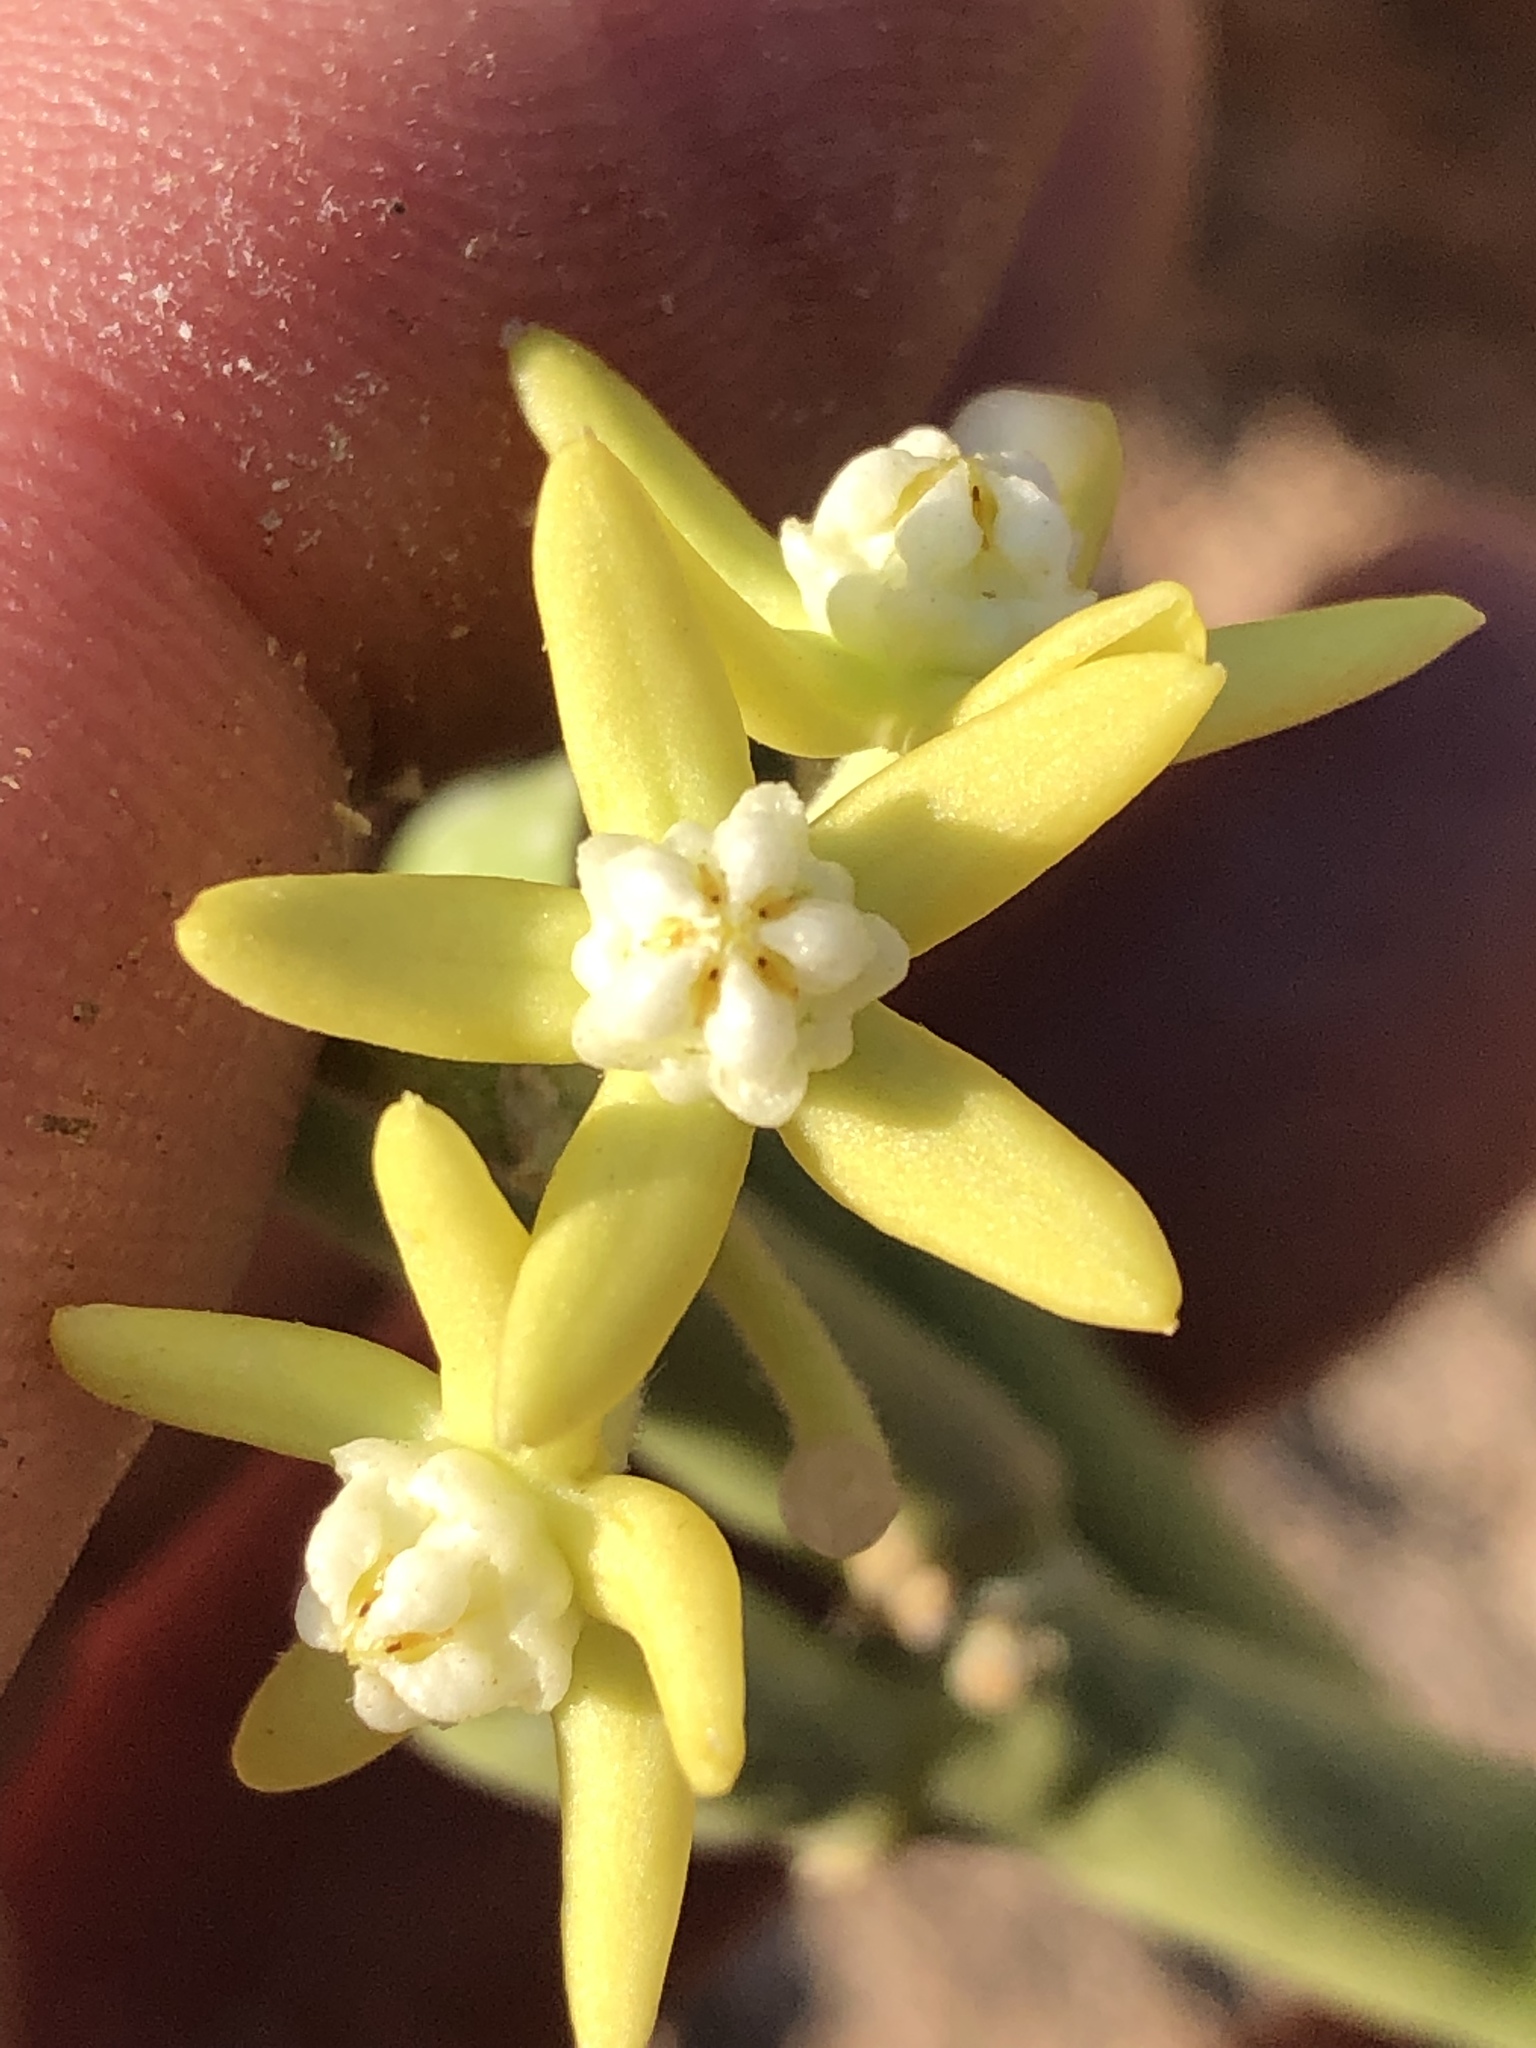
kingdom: Plantae
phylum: Tracheophyta
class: Magnoliopsida
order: Gentianales
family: Apocynaceae
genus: Cynanchum
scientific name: Cynanchum viminale
